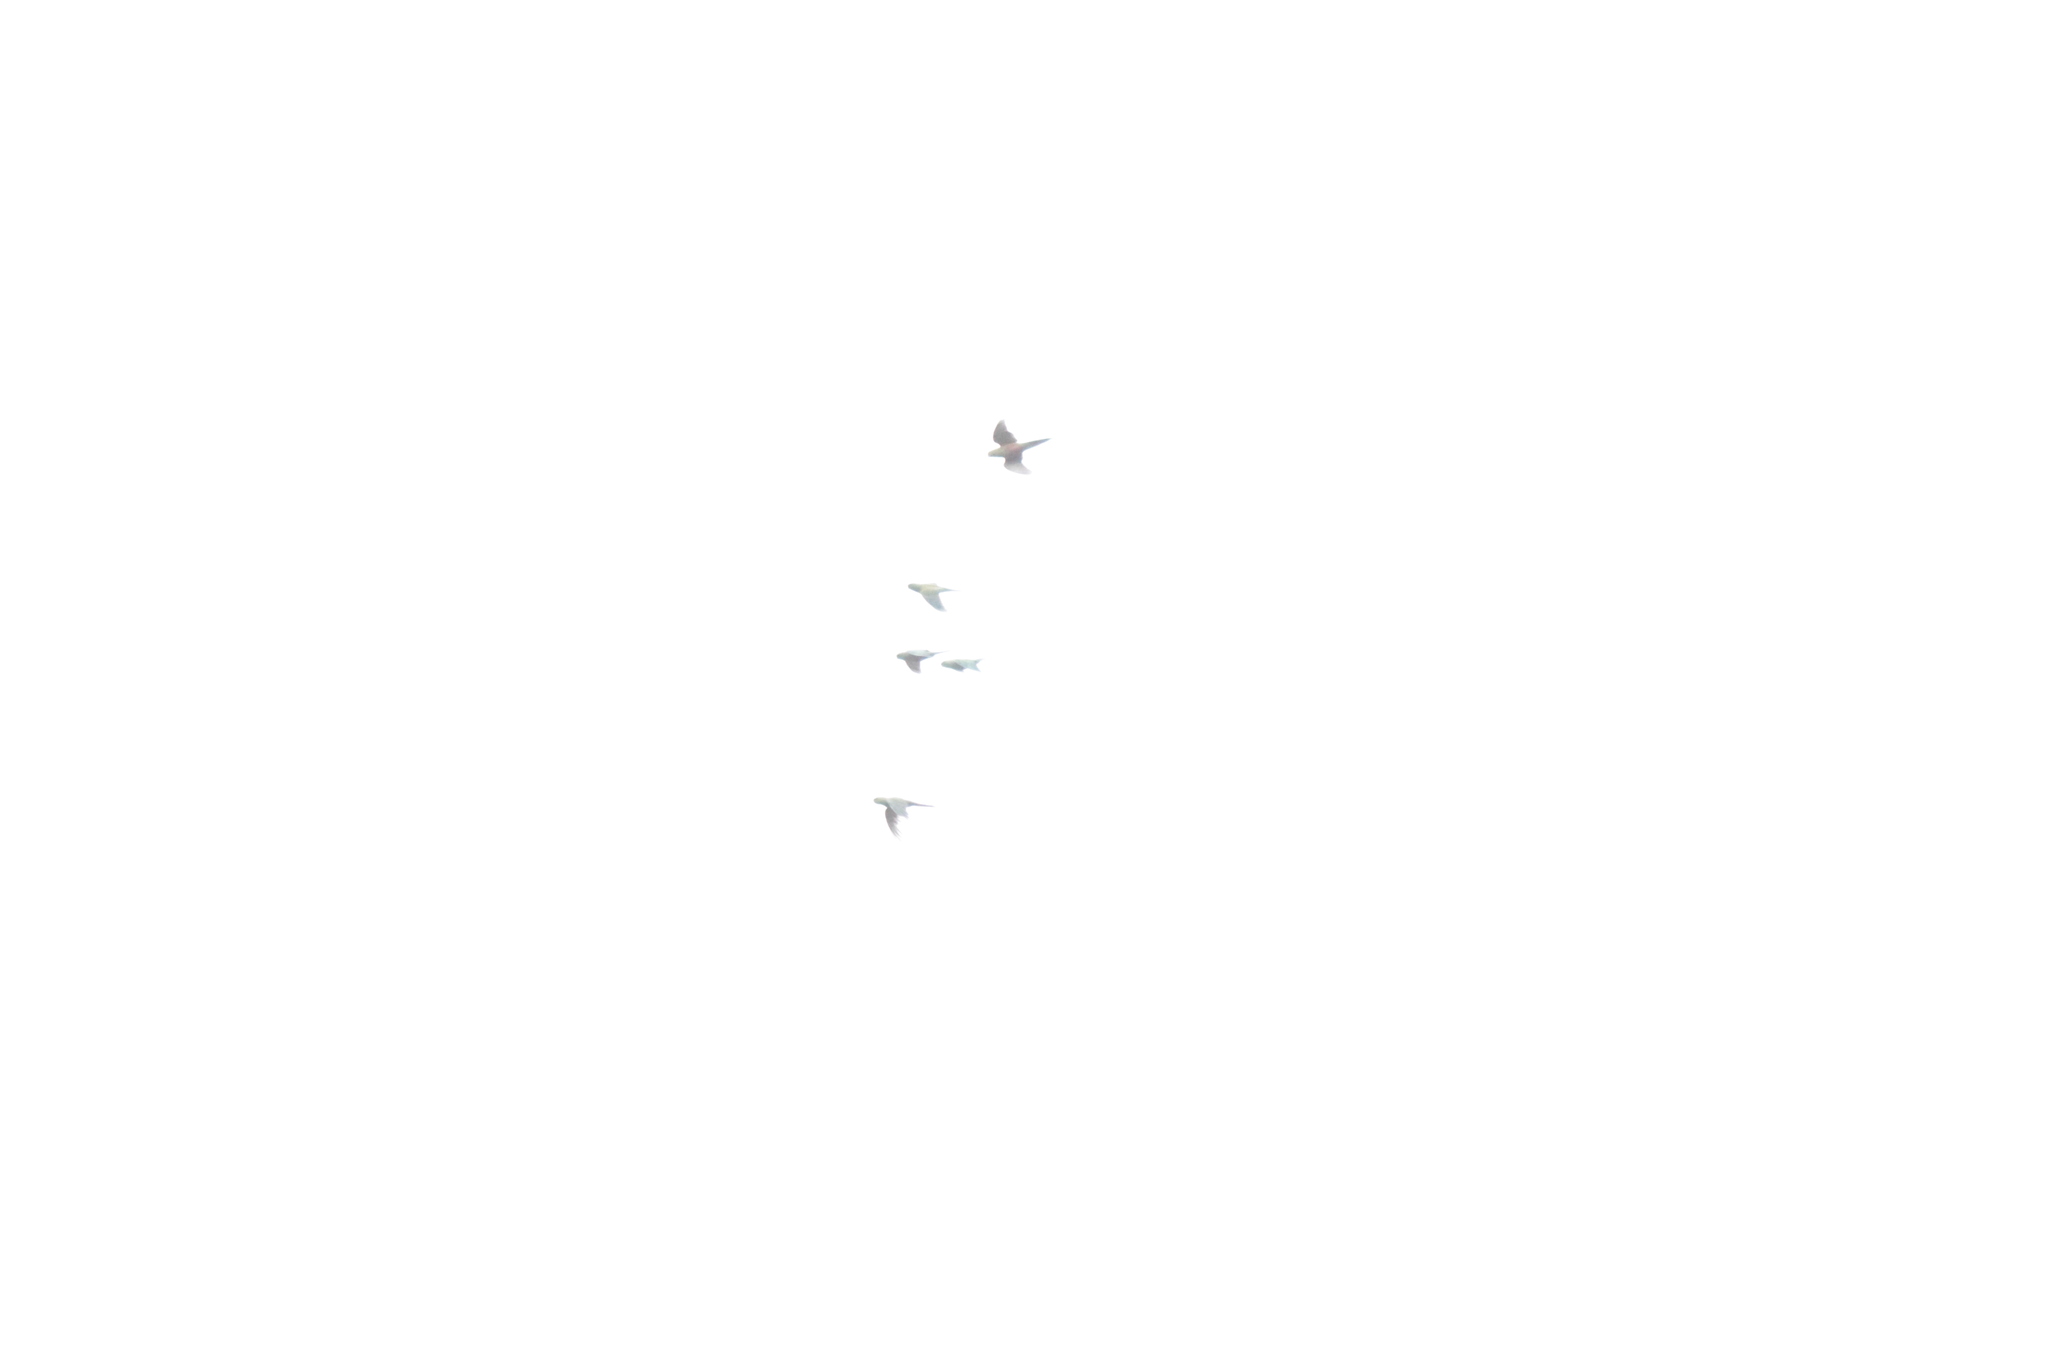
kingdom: Animalia
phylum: Chordata
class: Aves
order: Psittaciformes
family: Psittacidae
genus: Enicognathus
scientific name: Enicognathus ferrugineus
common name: Austral parakeet
